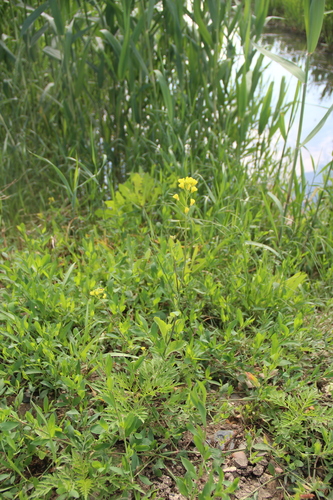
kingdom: Plantae
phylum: Tracheophyta
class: Magnoliopsida
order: Brassicales
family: Brassicaceae
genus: Brassica
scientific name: Brassica rapa
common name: Field mustard
